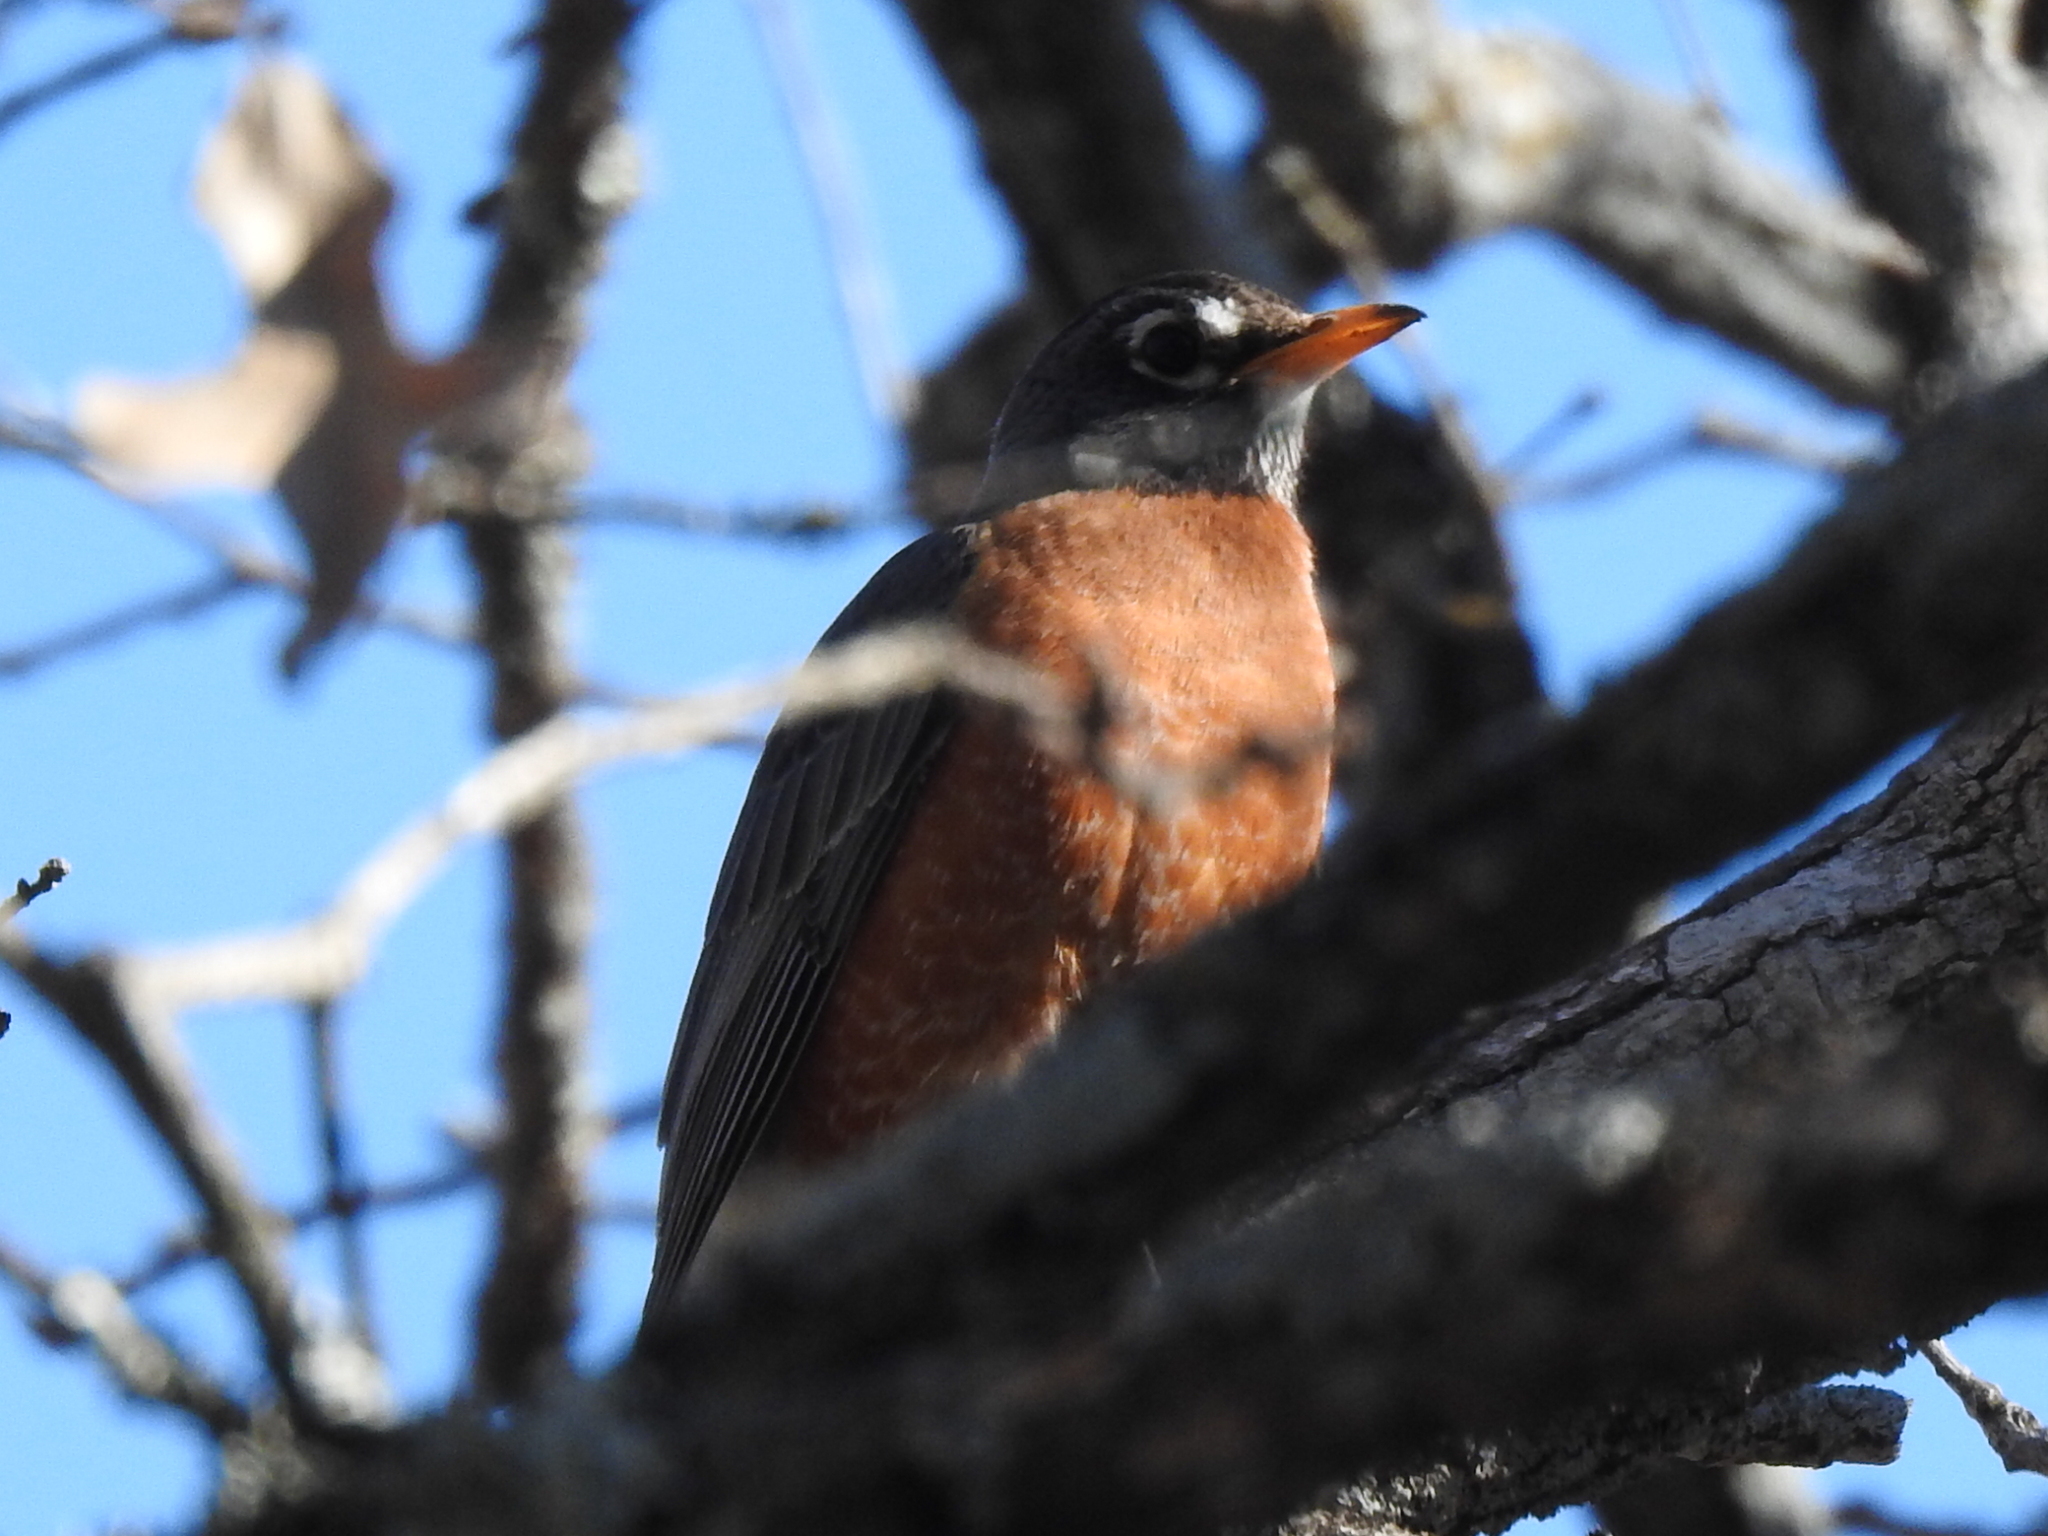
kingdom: Animalia
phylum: Chordata
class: Aves
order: Passeriformes
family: Turdidae
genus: Turdus
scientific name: Turdus migratorius
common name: American robin
